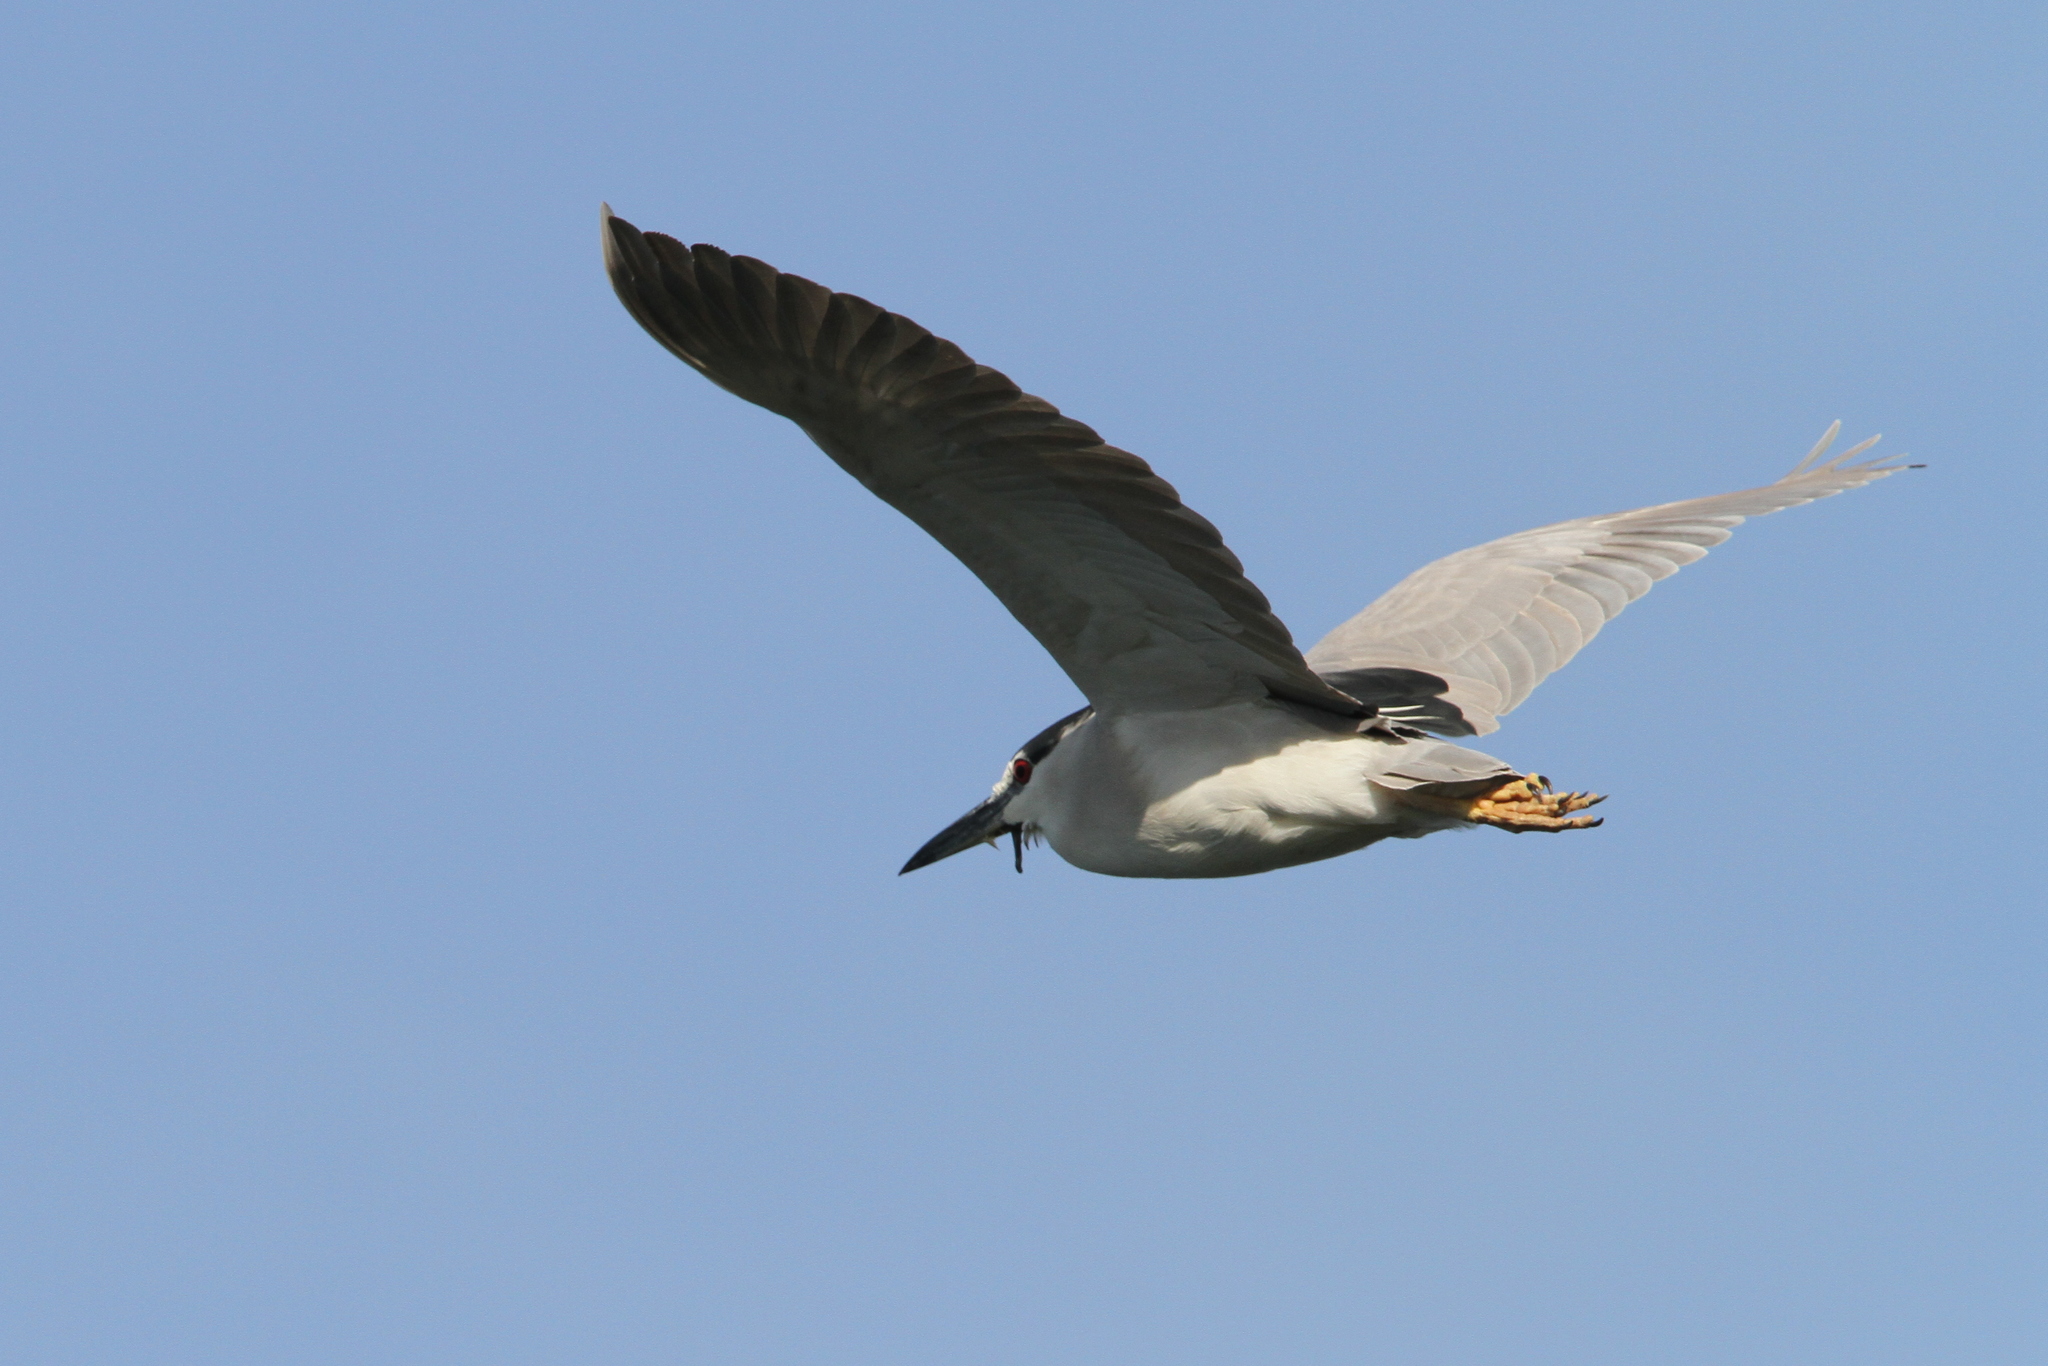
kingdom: Animalia
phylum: Chordata
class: Aves
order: Pelecaniformes
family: Ardeidae
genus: Nycticorax
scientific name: Nycticorax nycticorax
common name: Black-crowned night heron
